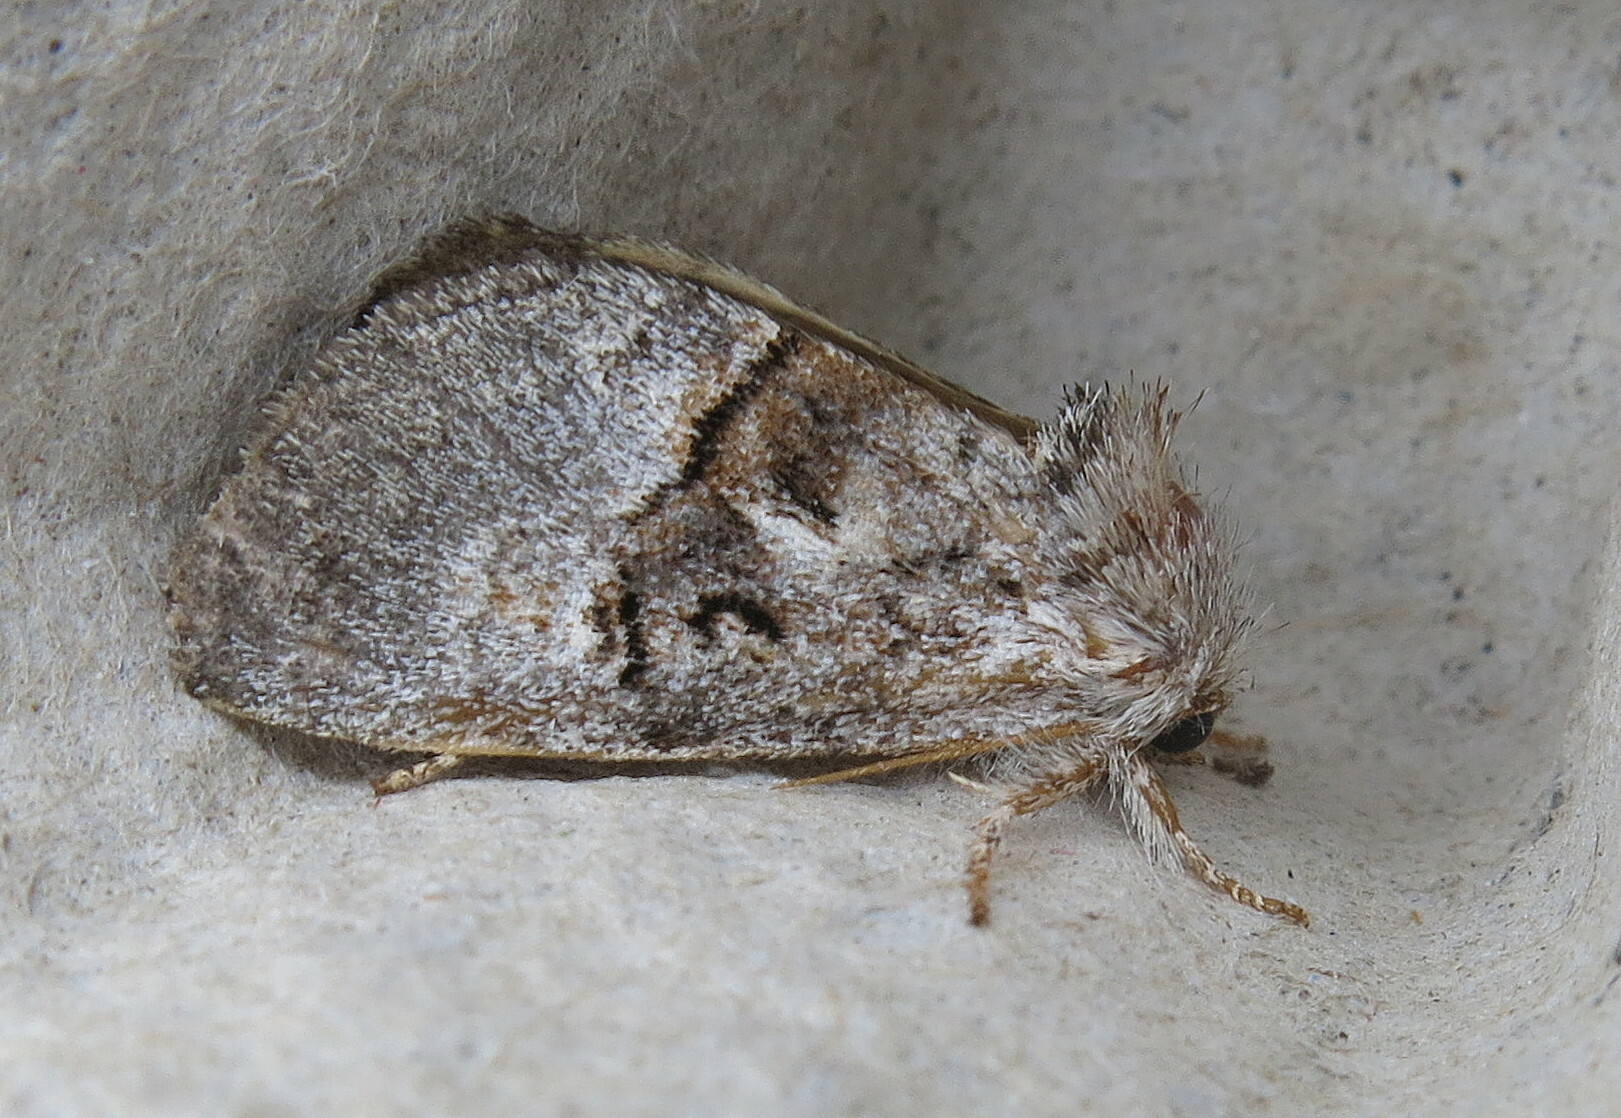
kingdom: Animalia
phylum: Arthropoda
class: Insecta
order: Lepidoptera
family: Noctuidae
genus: Colocasia
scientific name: Colocasia coryli
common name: Nut-tree tussock
